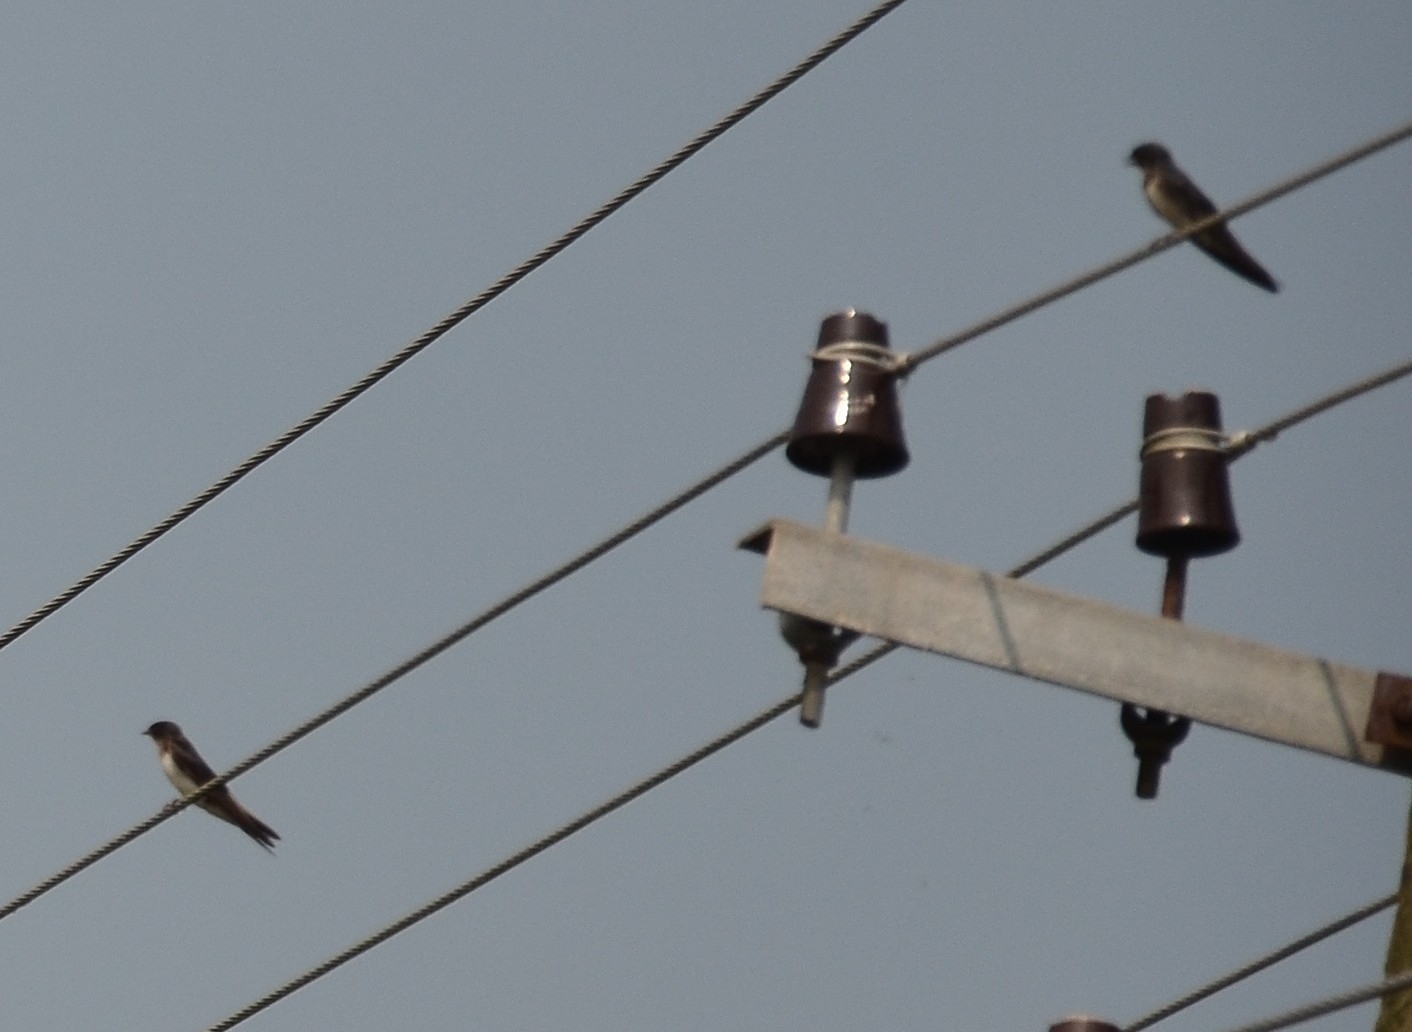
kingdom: Animalia
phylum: Chordata
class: Aves
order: Passeriformes
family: Hirundinidae
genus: Hirundo
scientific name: Hirundo rustica
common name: Barn swallow
